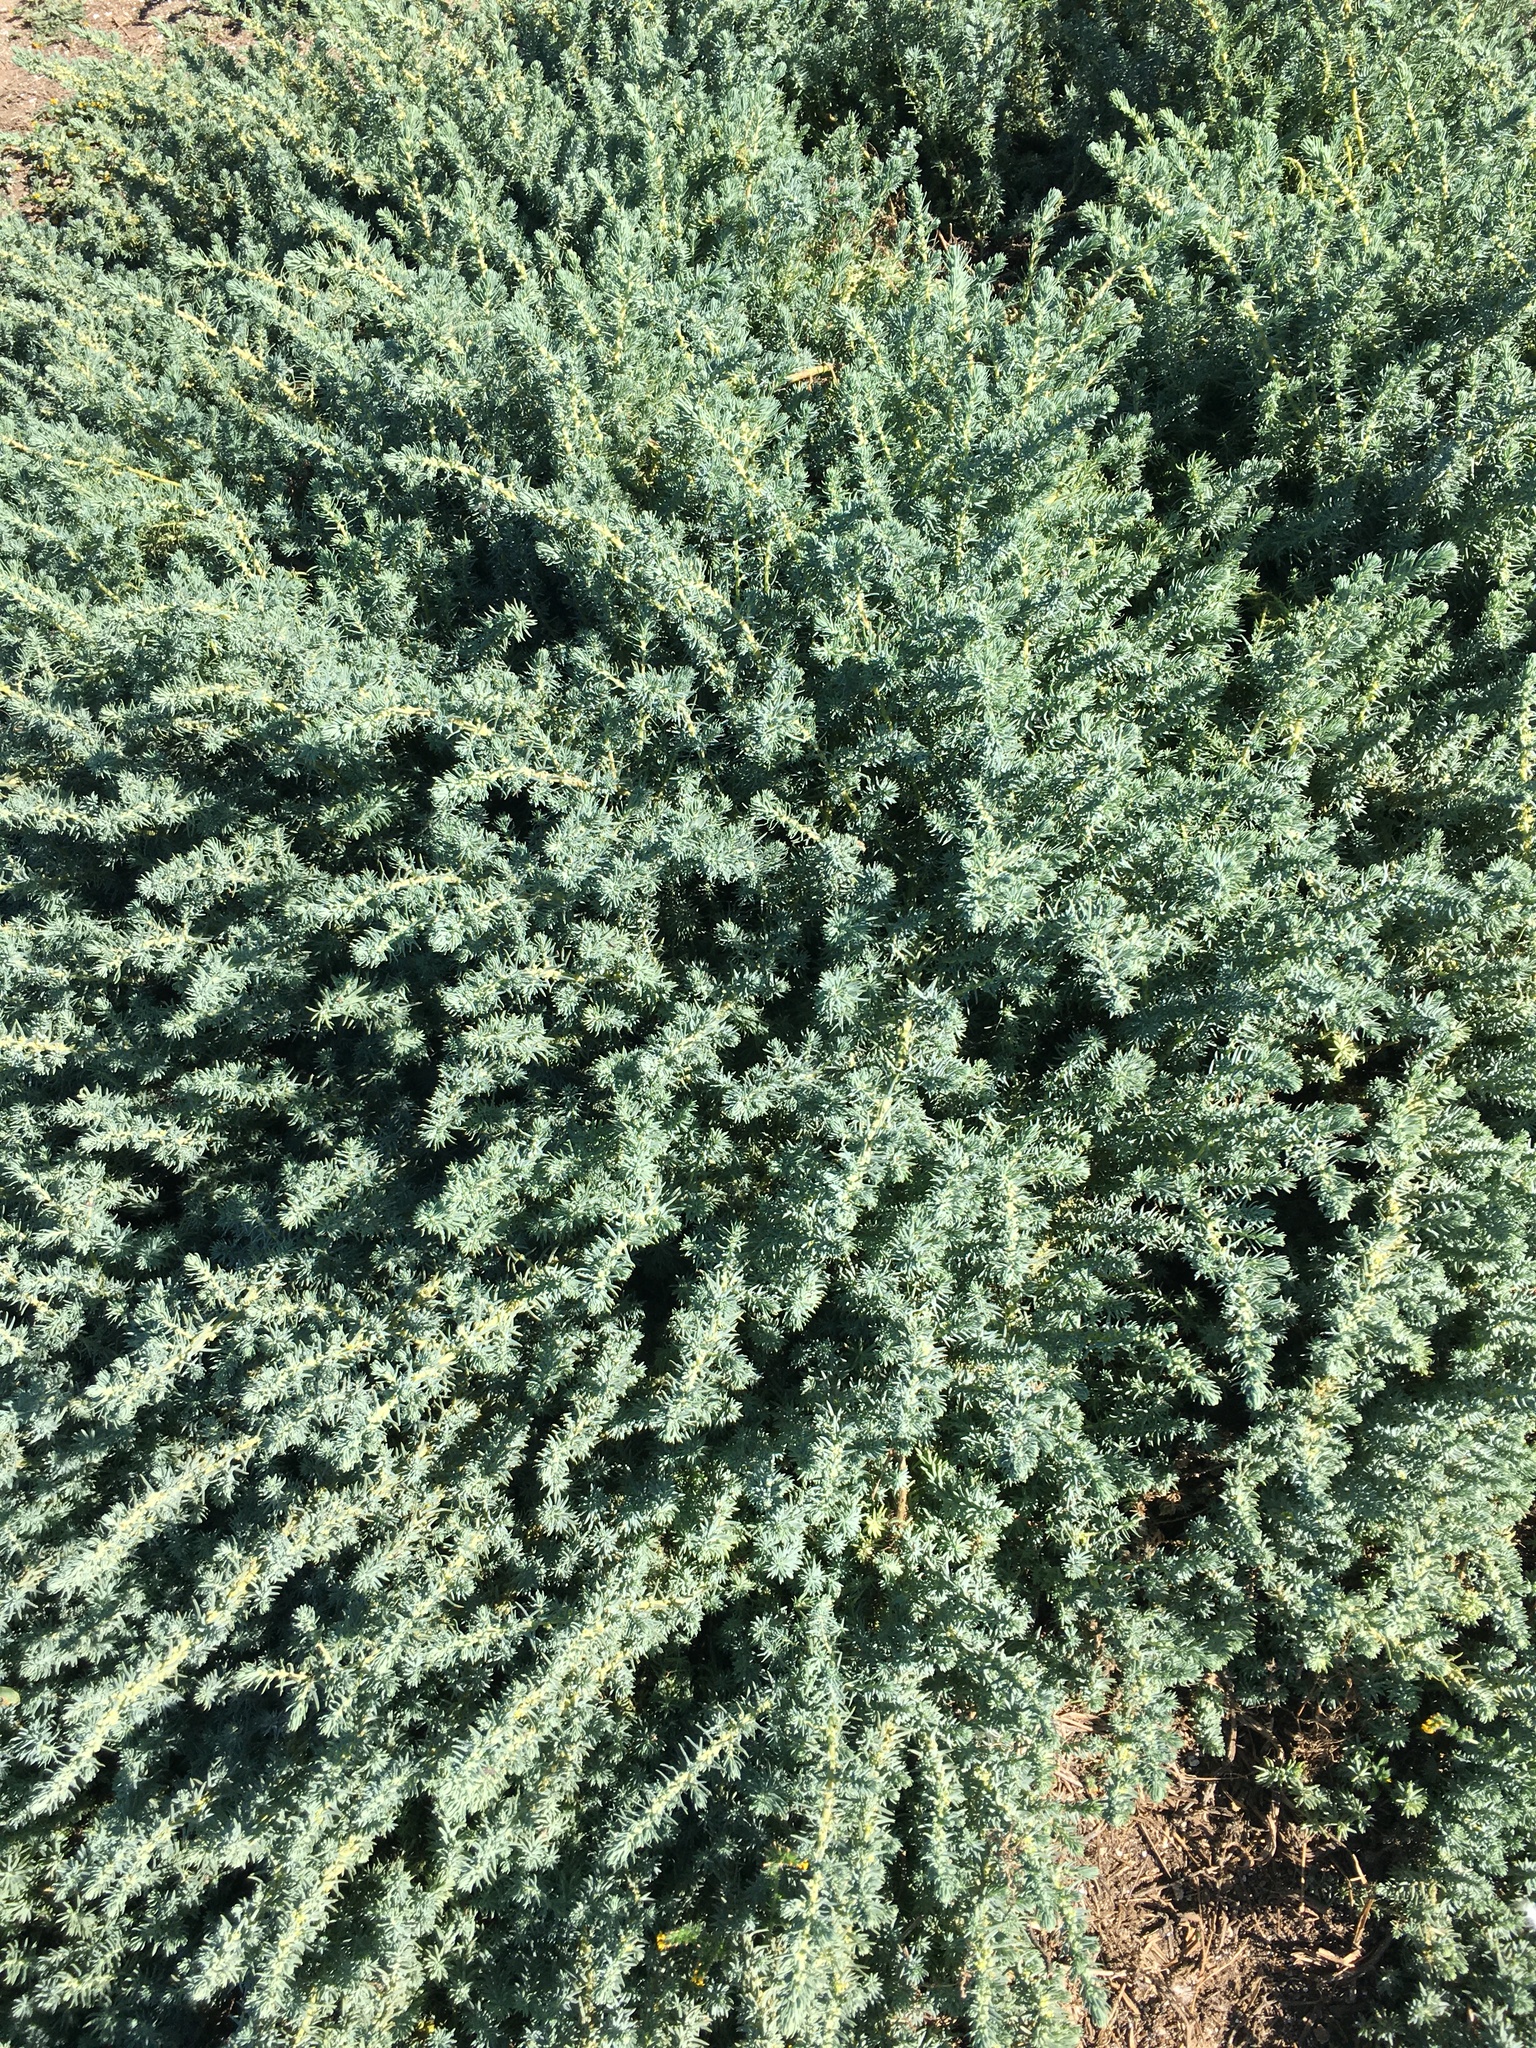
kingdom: Plantae
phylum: Tracheophyta
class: Magnoliopsida
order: Caryophyllales
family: Amaranthaceae
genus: Suaeda
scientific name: Suaeda taxifolia
